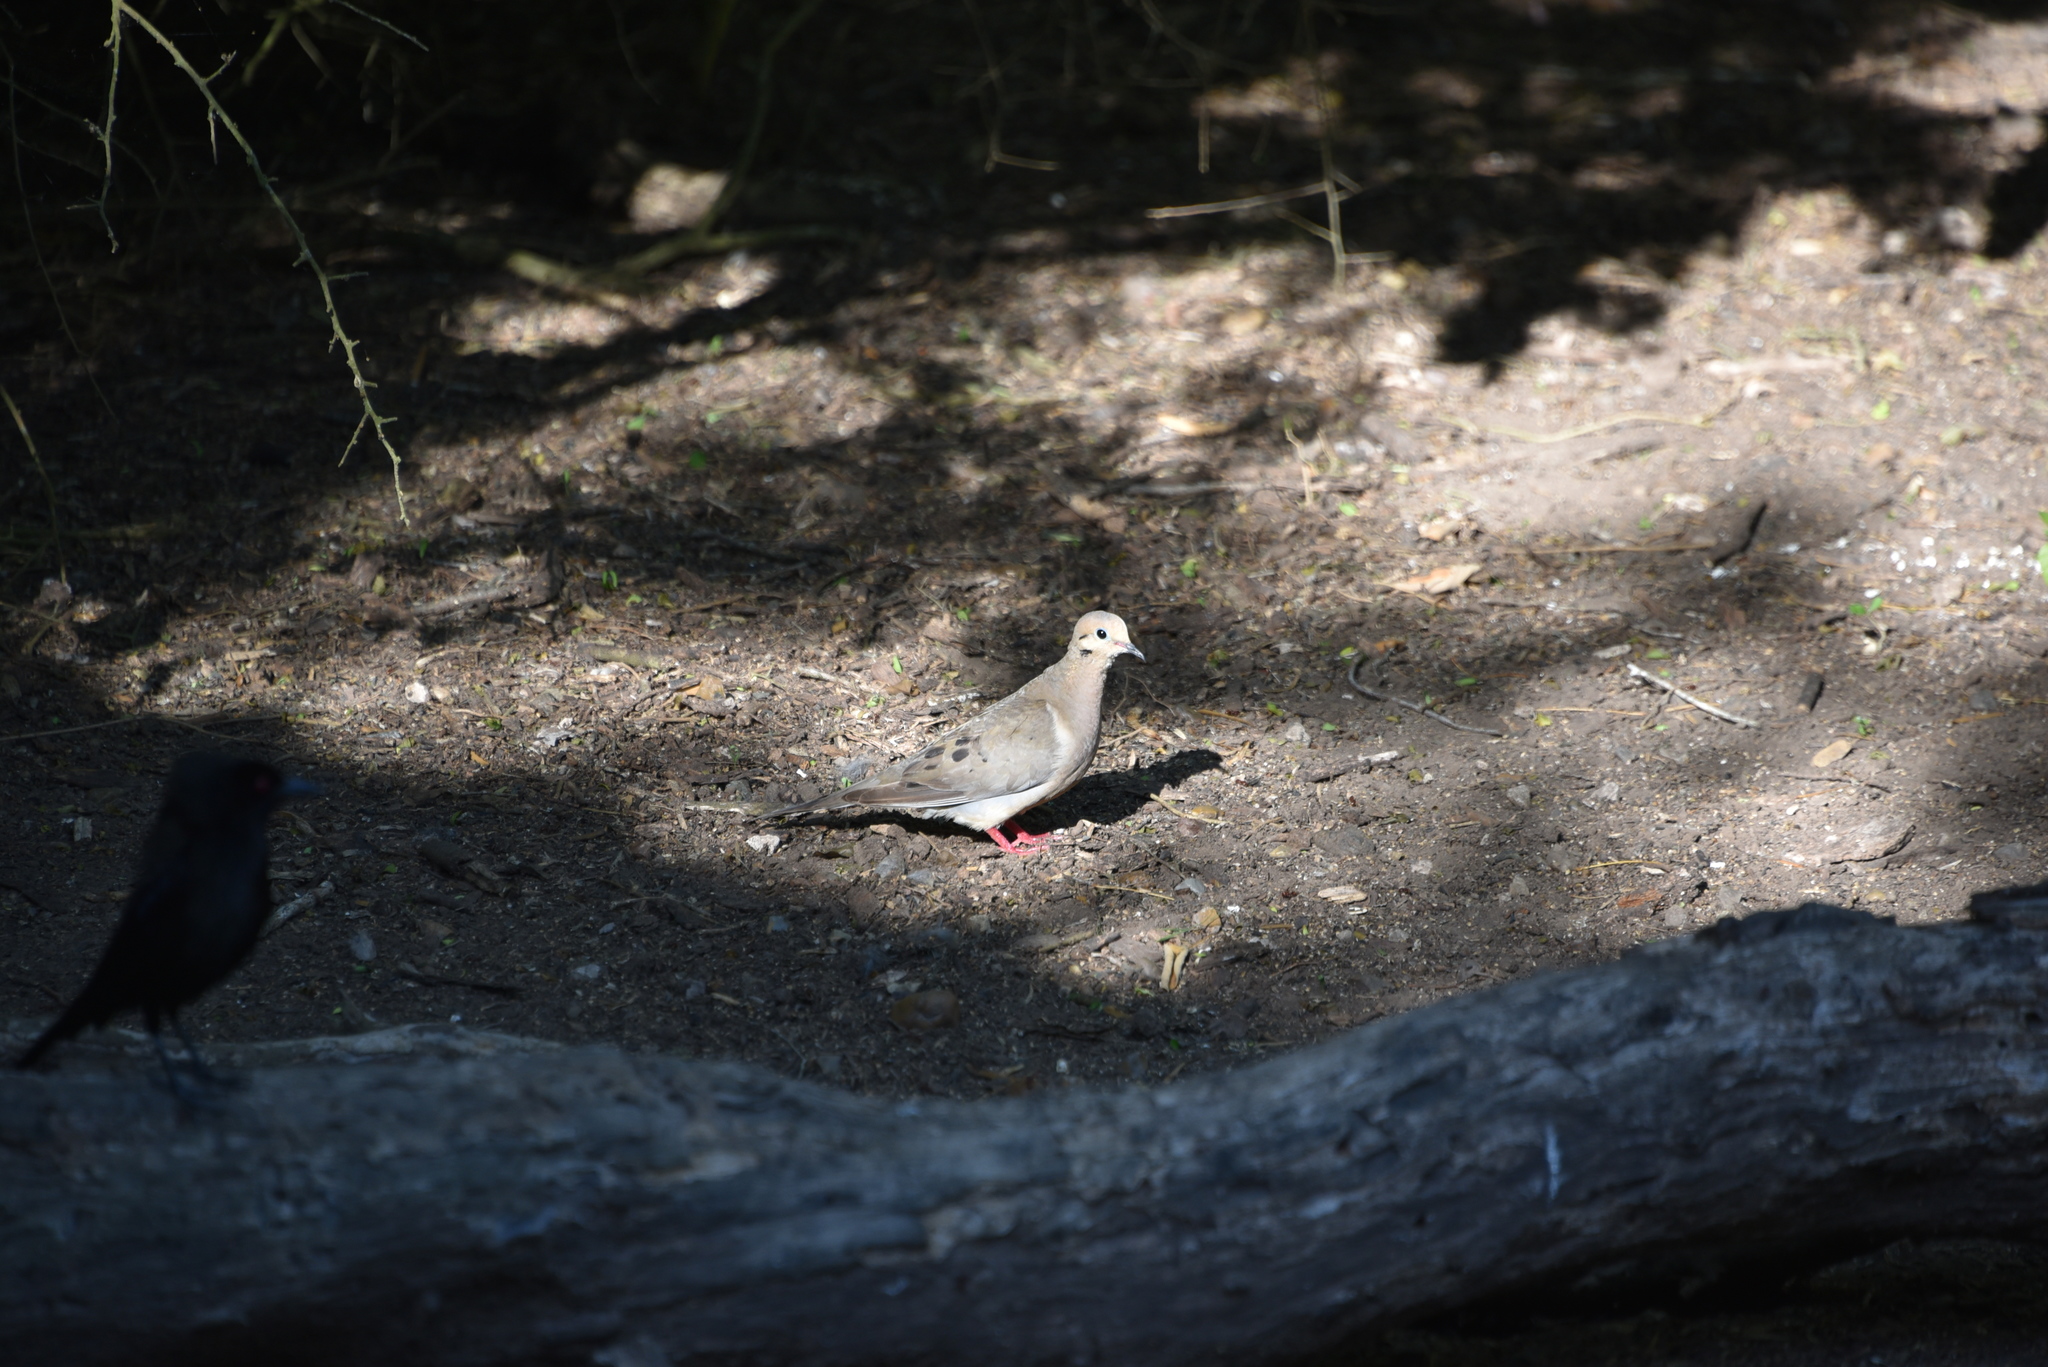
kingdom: Animalia
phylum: Chordata
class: Aves
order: Columbiformes
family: Columbidae
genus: Zenaida
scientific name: Zenaida macroura
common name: Mourning dove
